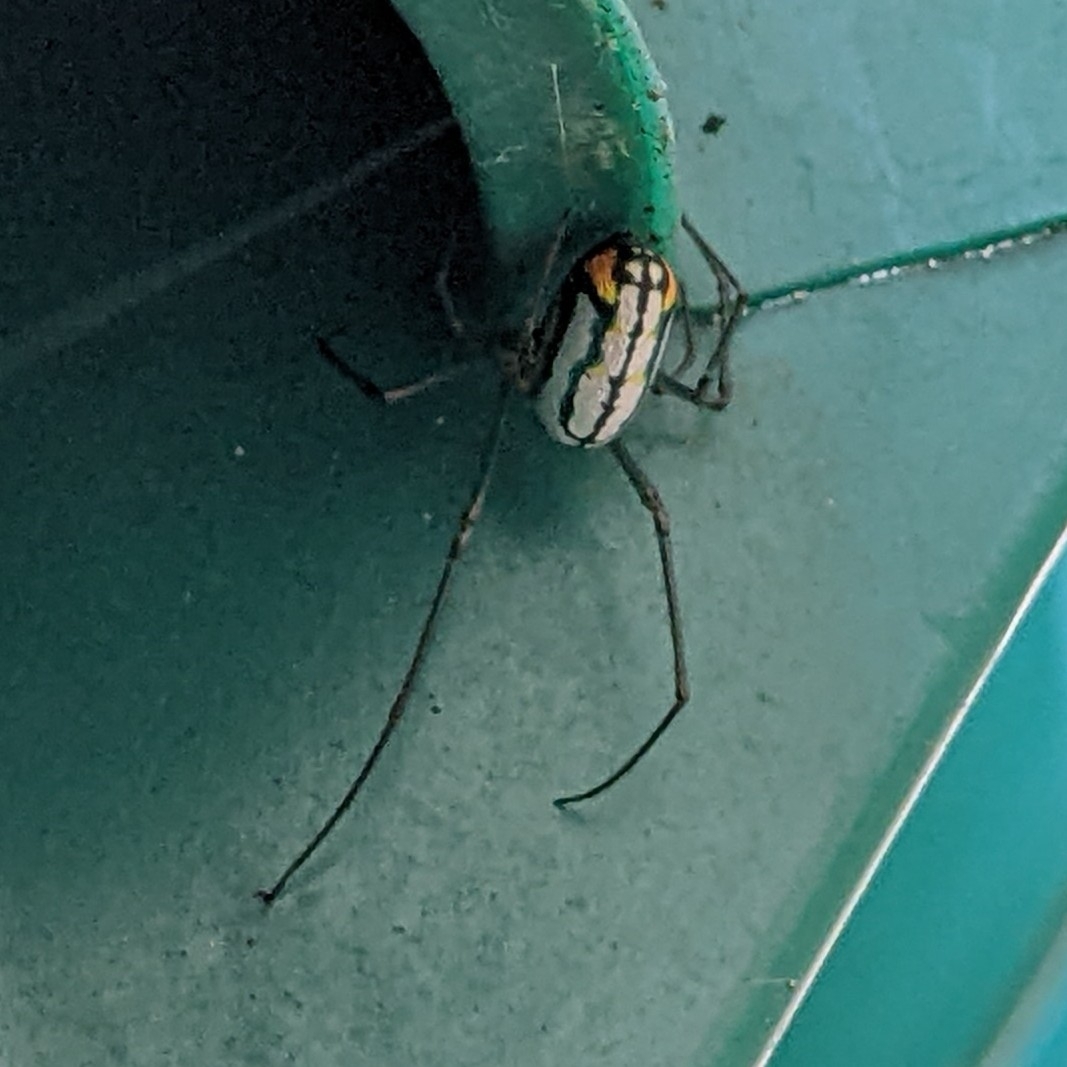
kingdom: Animalia
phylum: Arthropoda
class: Arachnida
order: Araneae
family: Tetragnathidae
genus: Leucauge
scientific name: Leucauge argyrobapta
